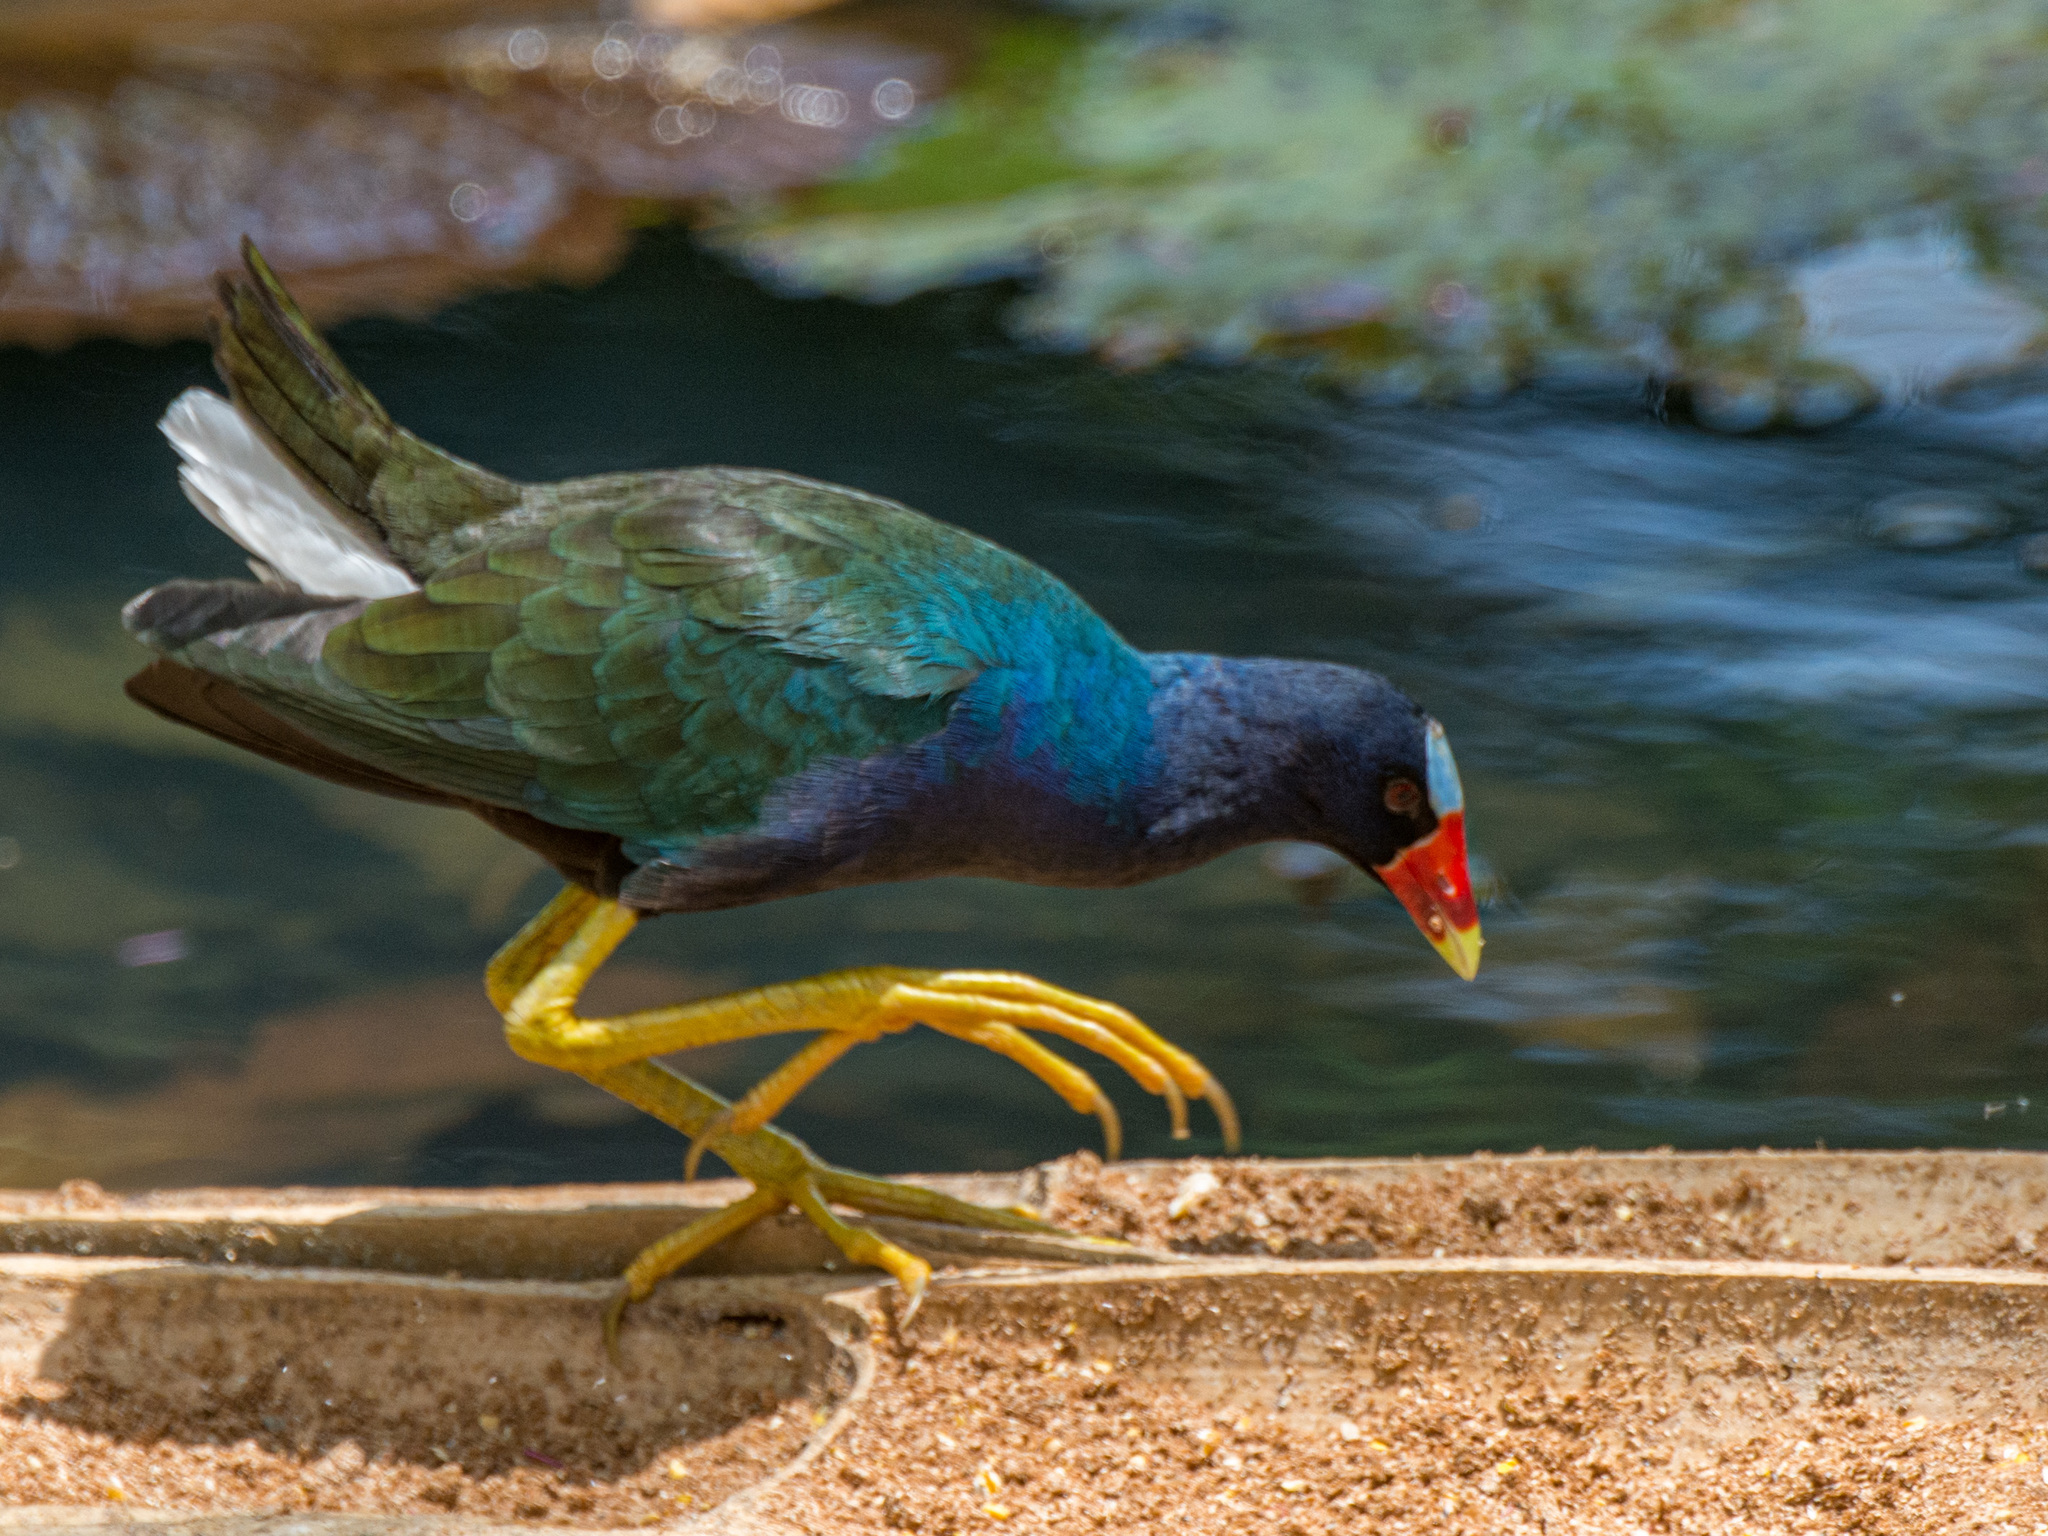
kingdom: Animalia
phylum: Chordata
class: Aves
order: Gruiformes
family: Rallidae
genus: Porphyrio
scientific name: Porphyrio martinica
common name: Purple gallinule
